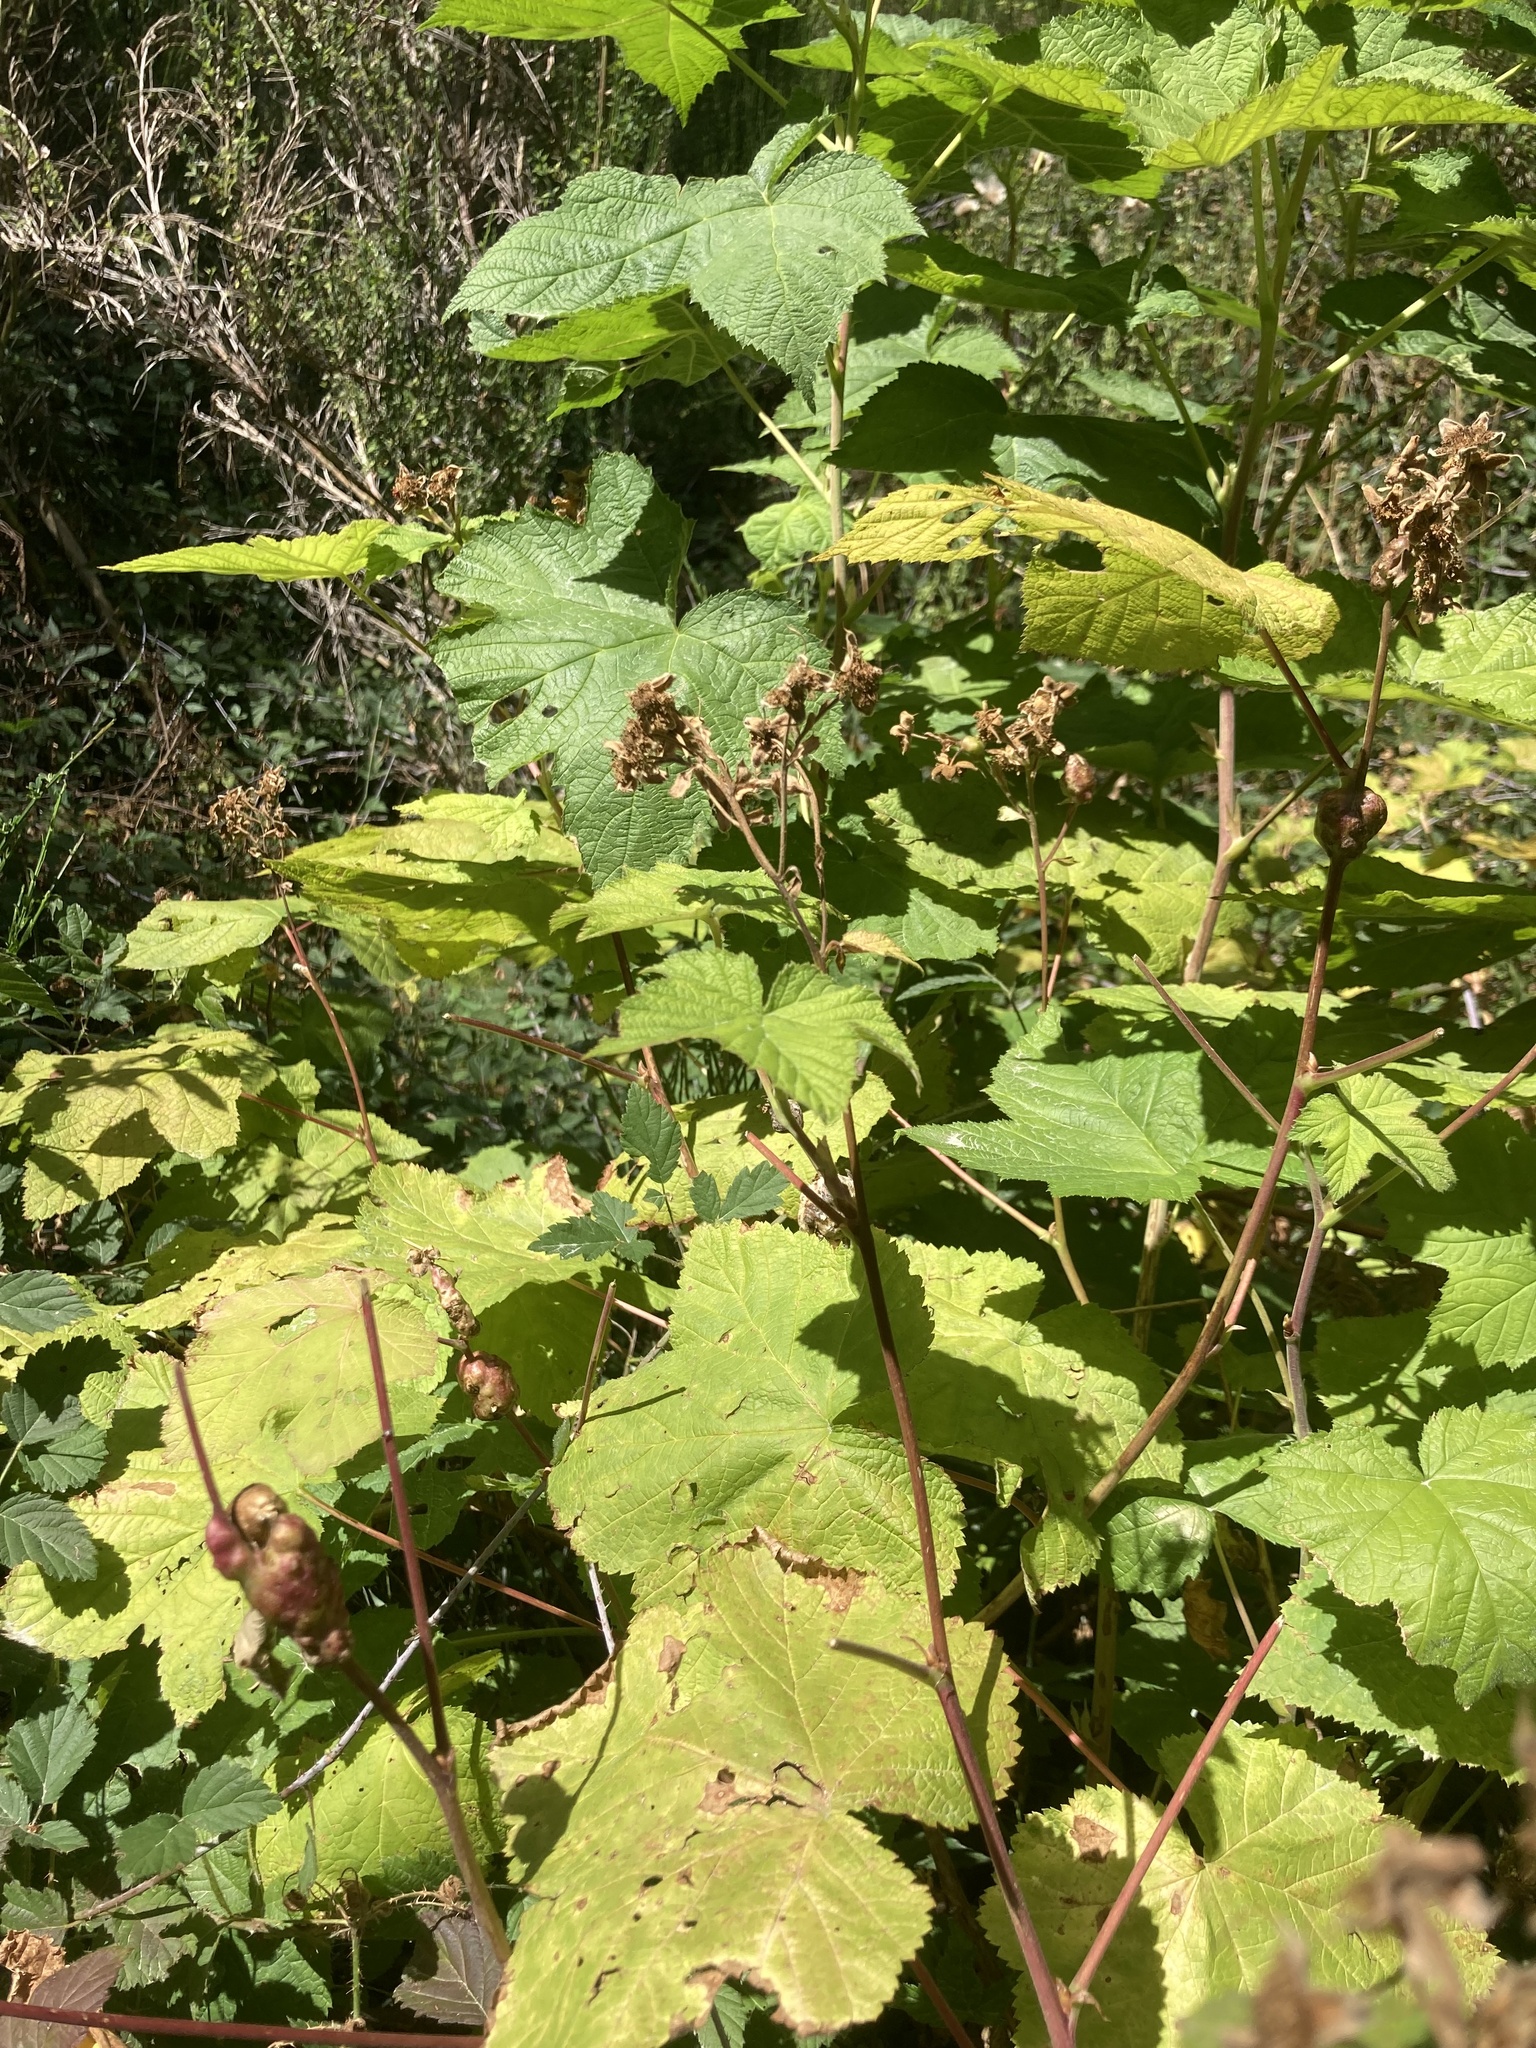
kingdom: Plantae
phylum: Tracheophyta
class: Magnoliopsida
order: Rosales
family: Rosaceae
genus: Rubus
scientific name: Rubus parviflorus
